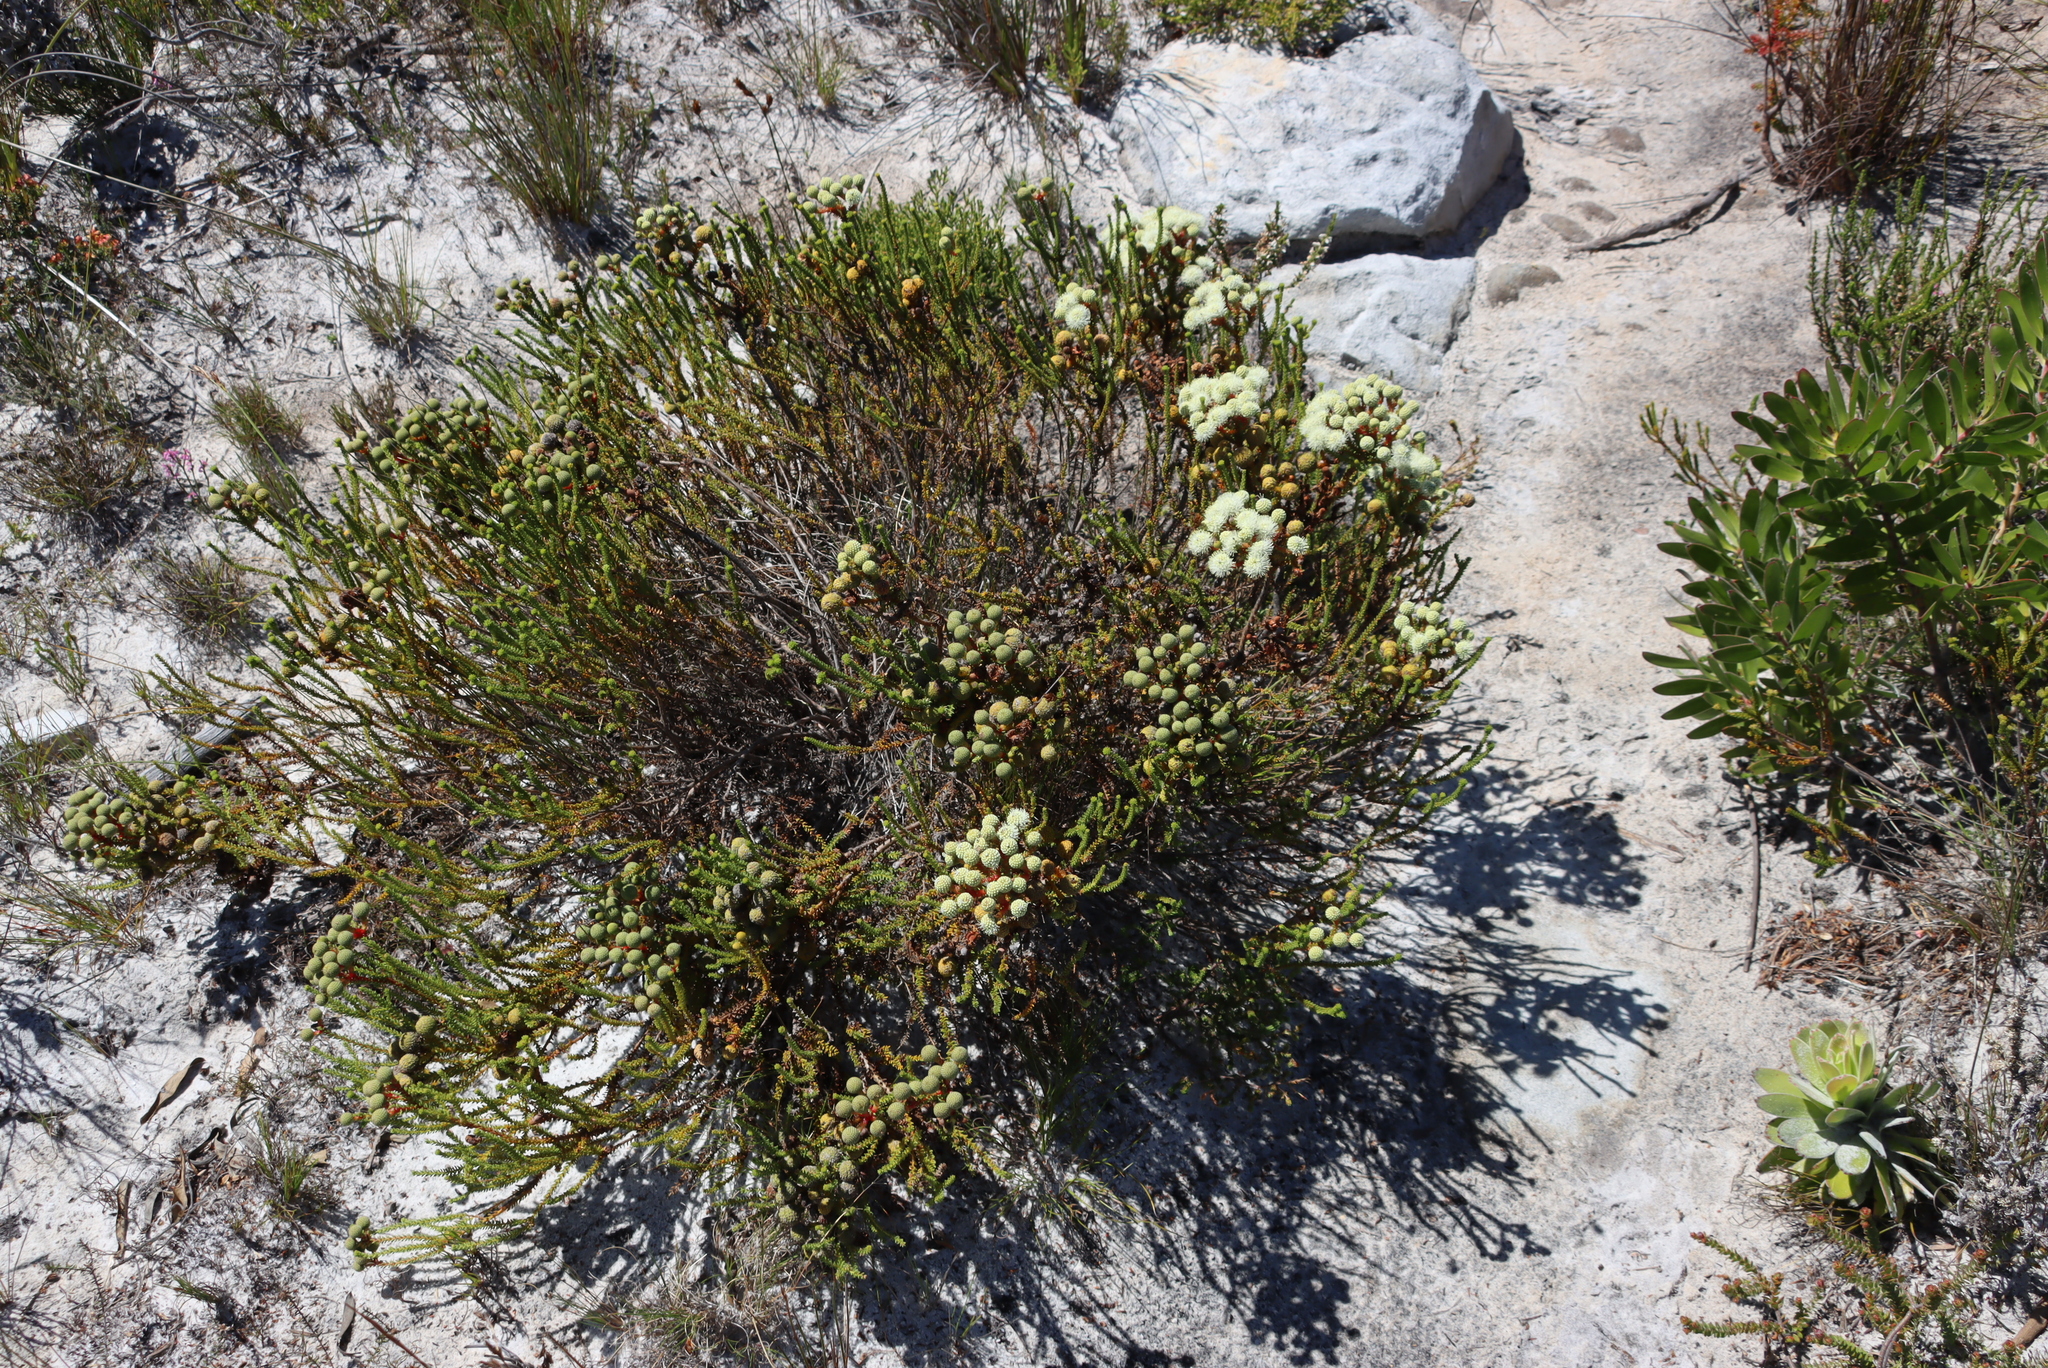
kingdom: Plantae
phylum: Tracheophyta
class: Magnoliopsida
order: Bruniales
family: Bruniaceae
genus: Berzelia
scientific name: Berzelia abrotanoides
